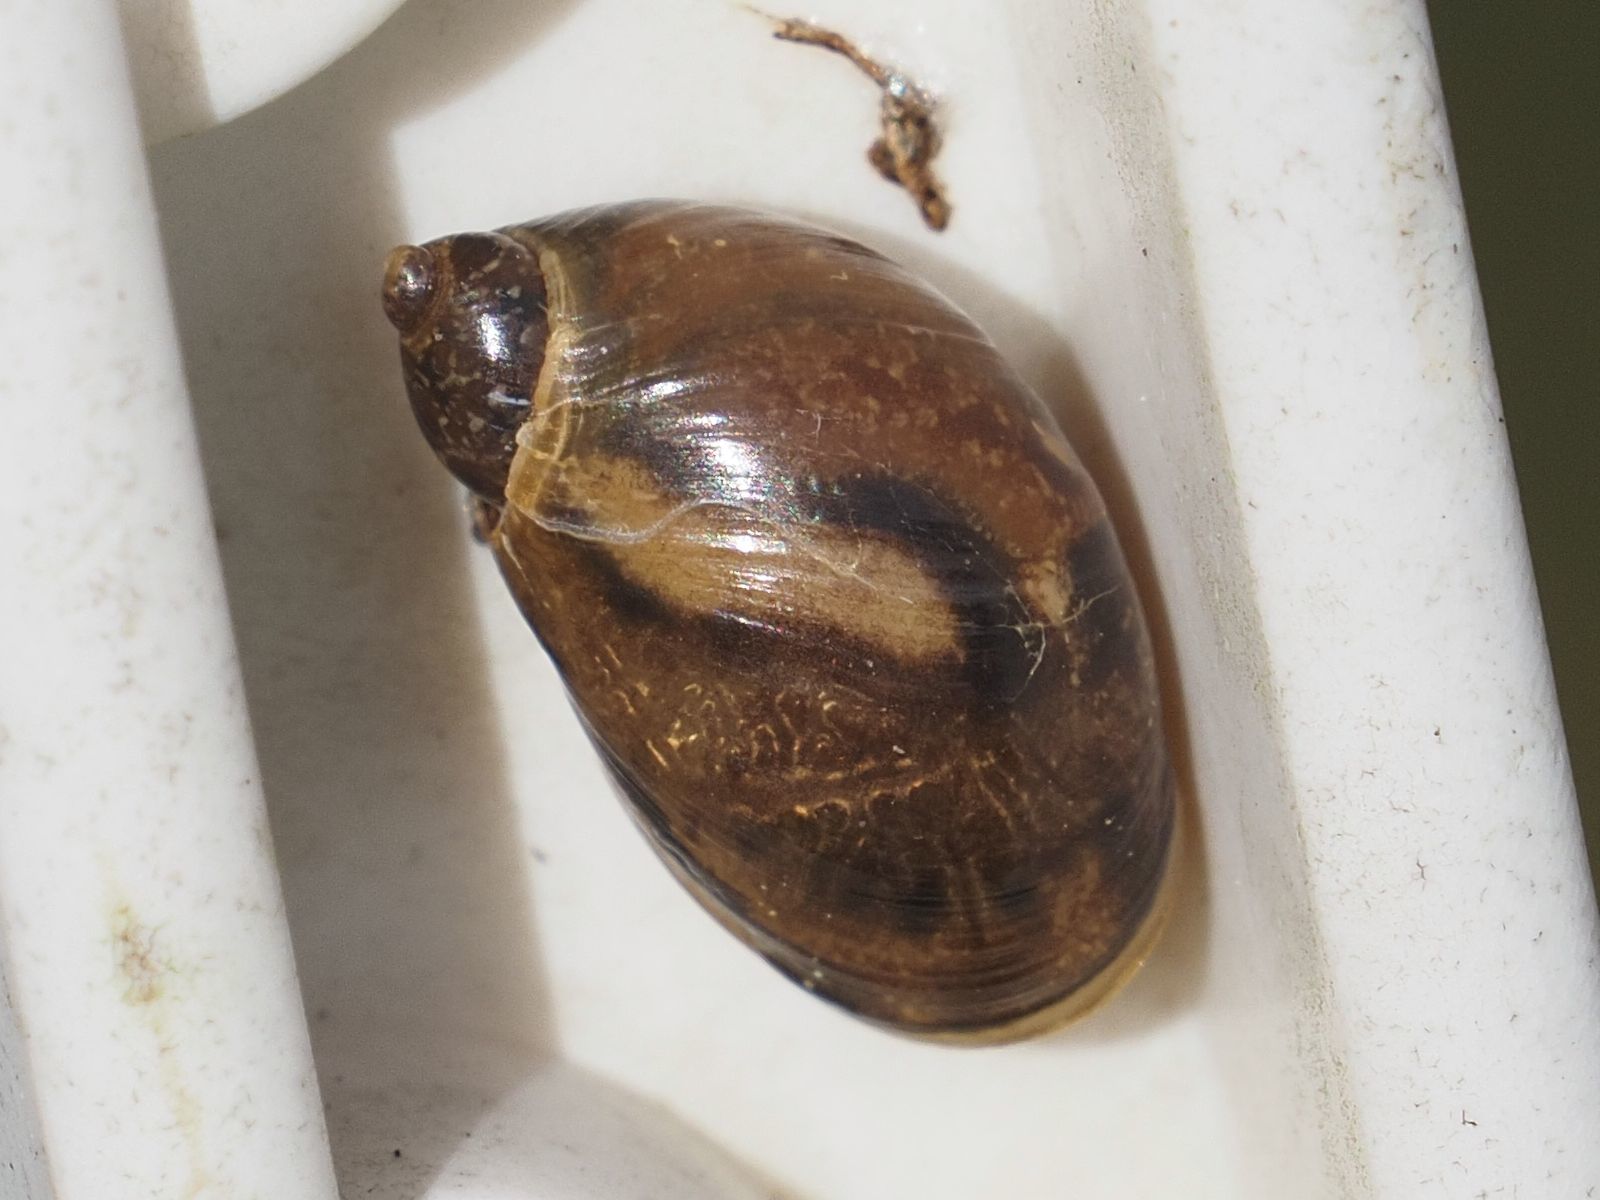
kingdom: Animalia
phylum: Mollusca
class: Gastropoda
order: Stylommatophora
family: Succineidae
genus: Succinea
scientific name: Succinea putris
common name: European ambersnail
